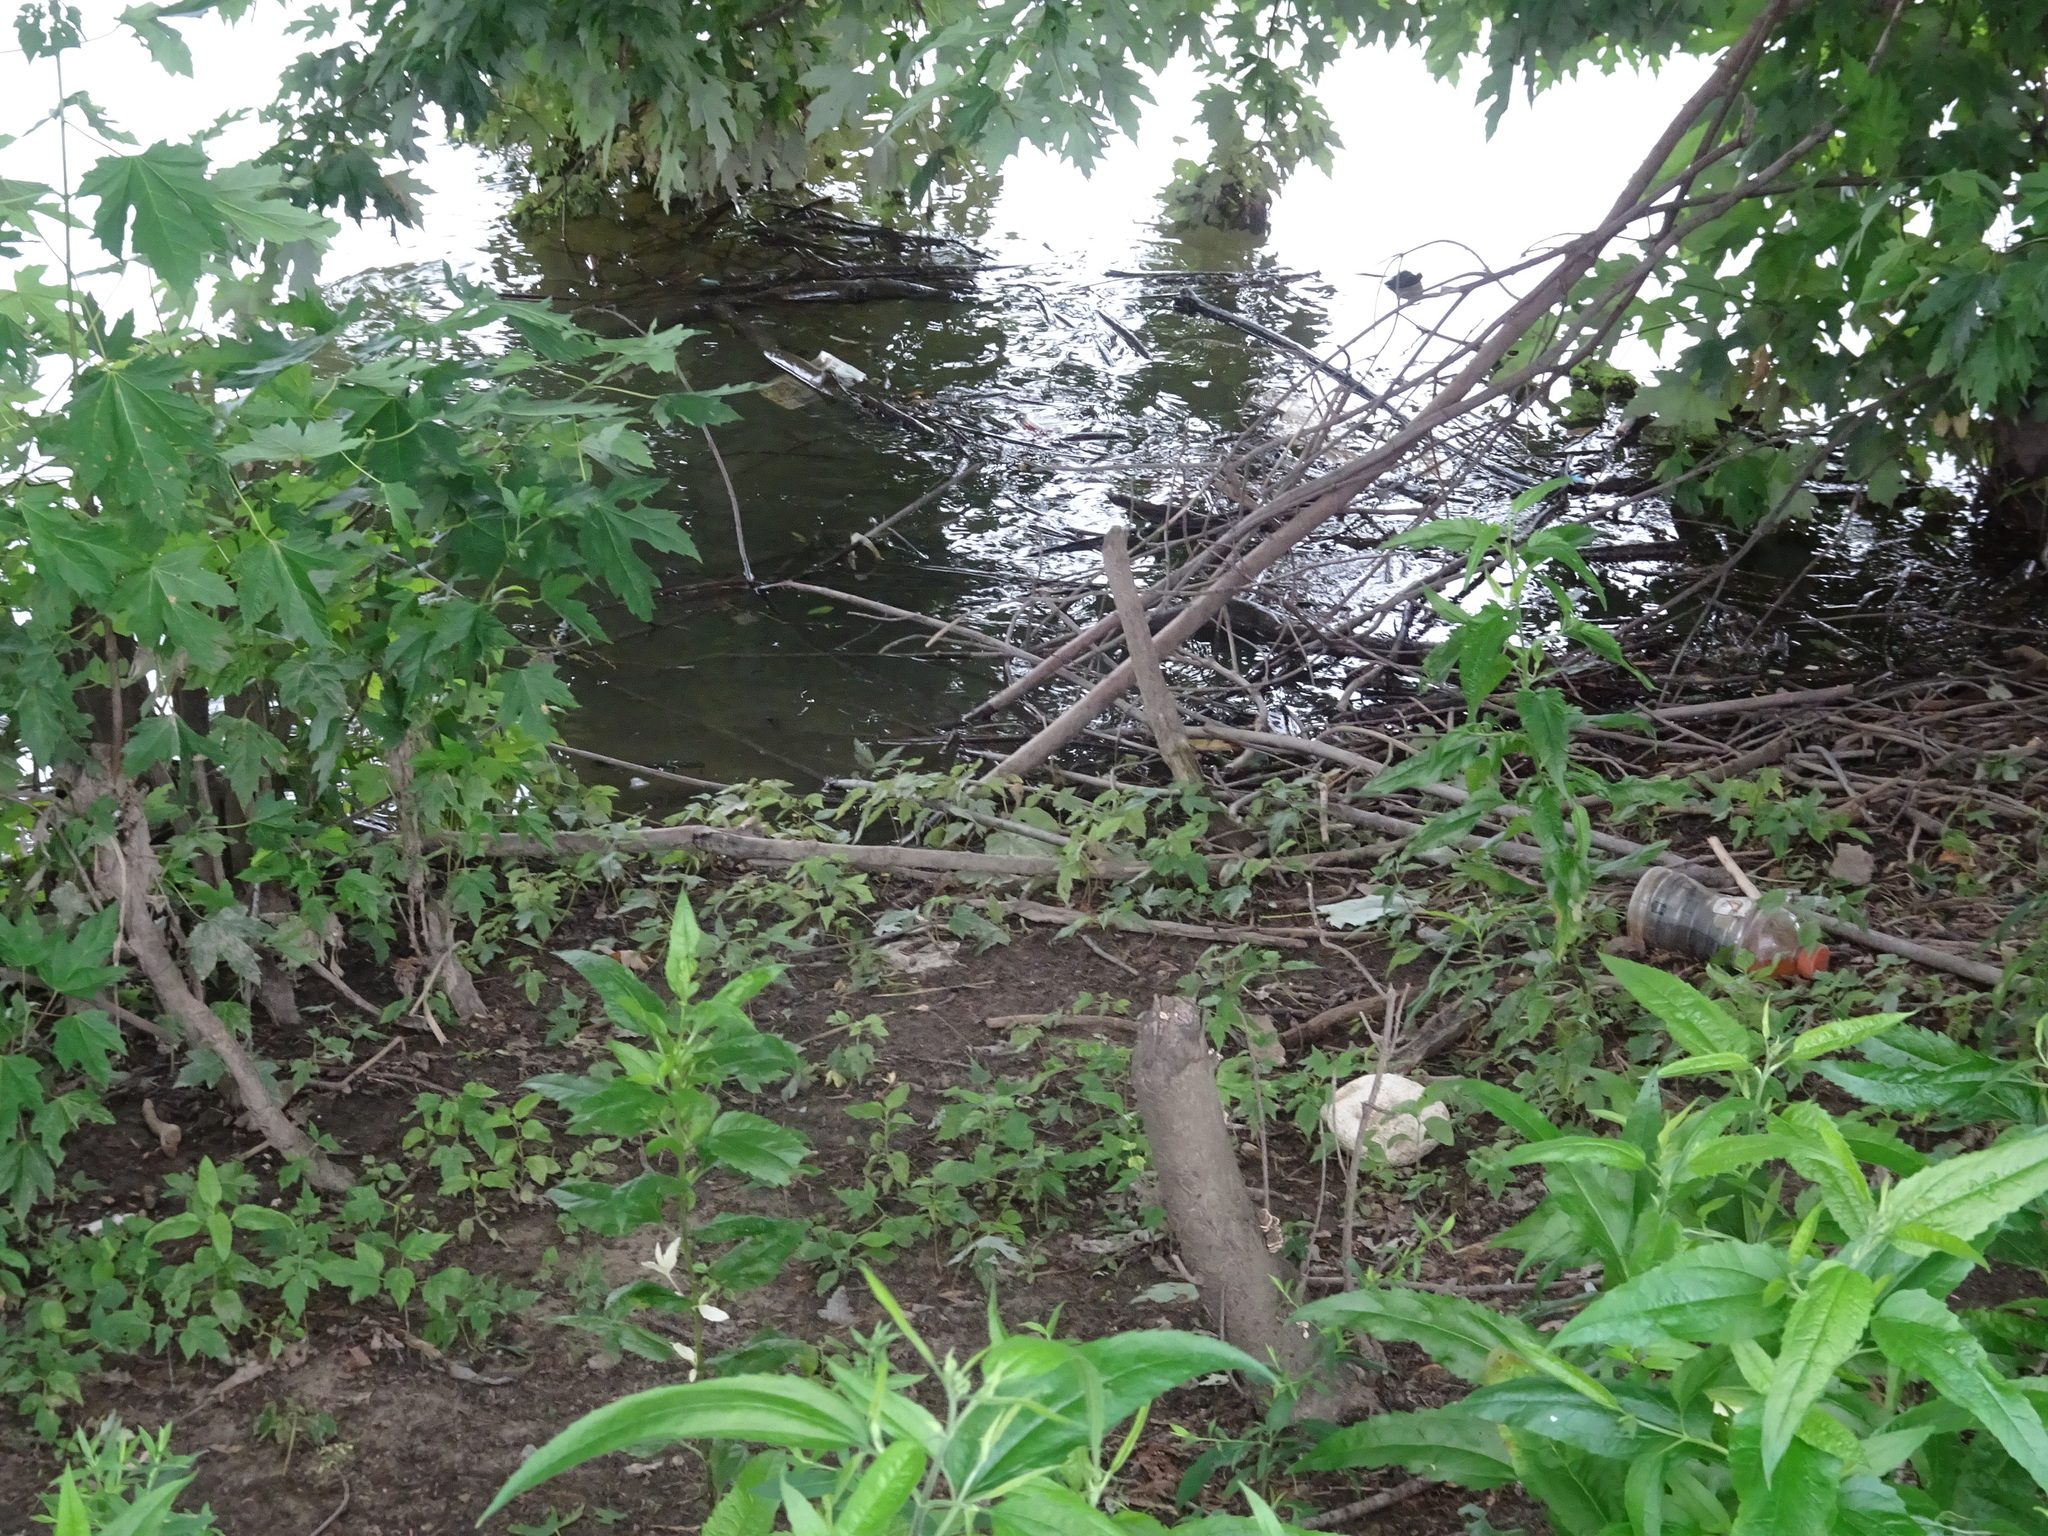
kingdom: Animalia
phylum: Chordata
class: Mammalia
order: Rodentia
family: Castoridae
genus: Castor
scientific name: Castor canadensis
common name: American beaver
